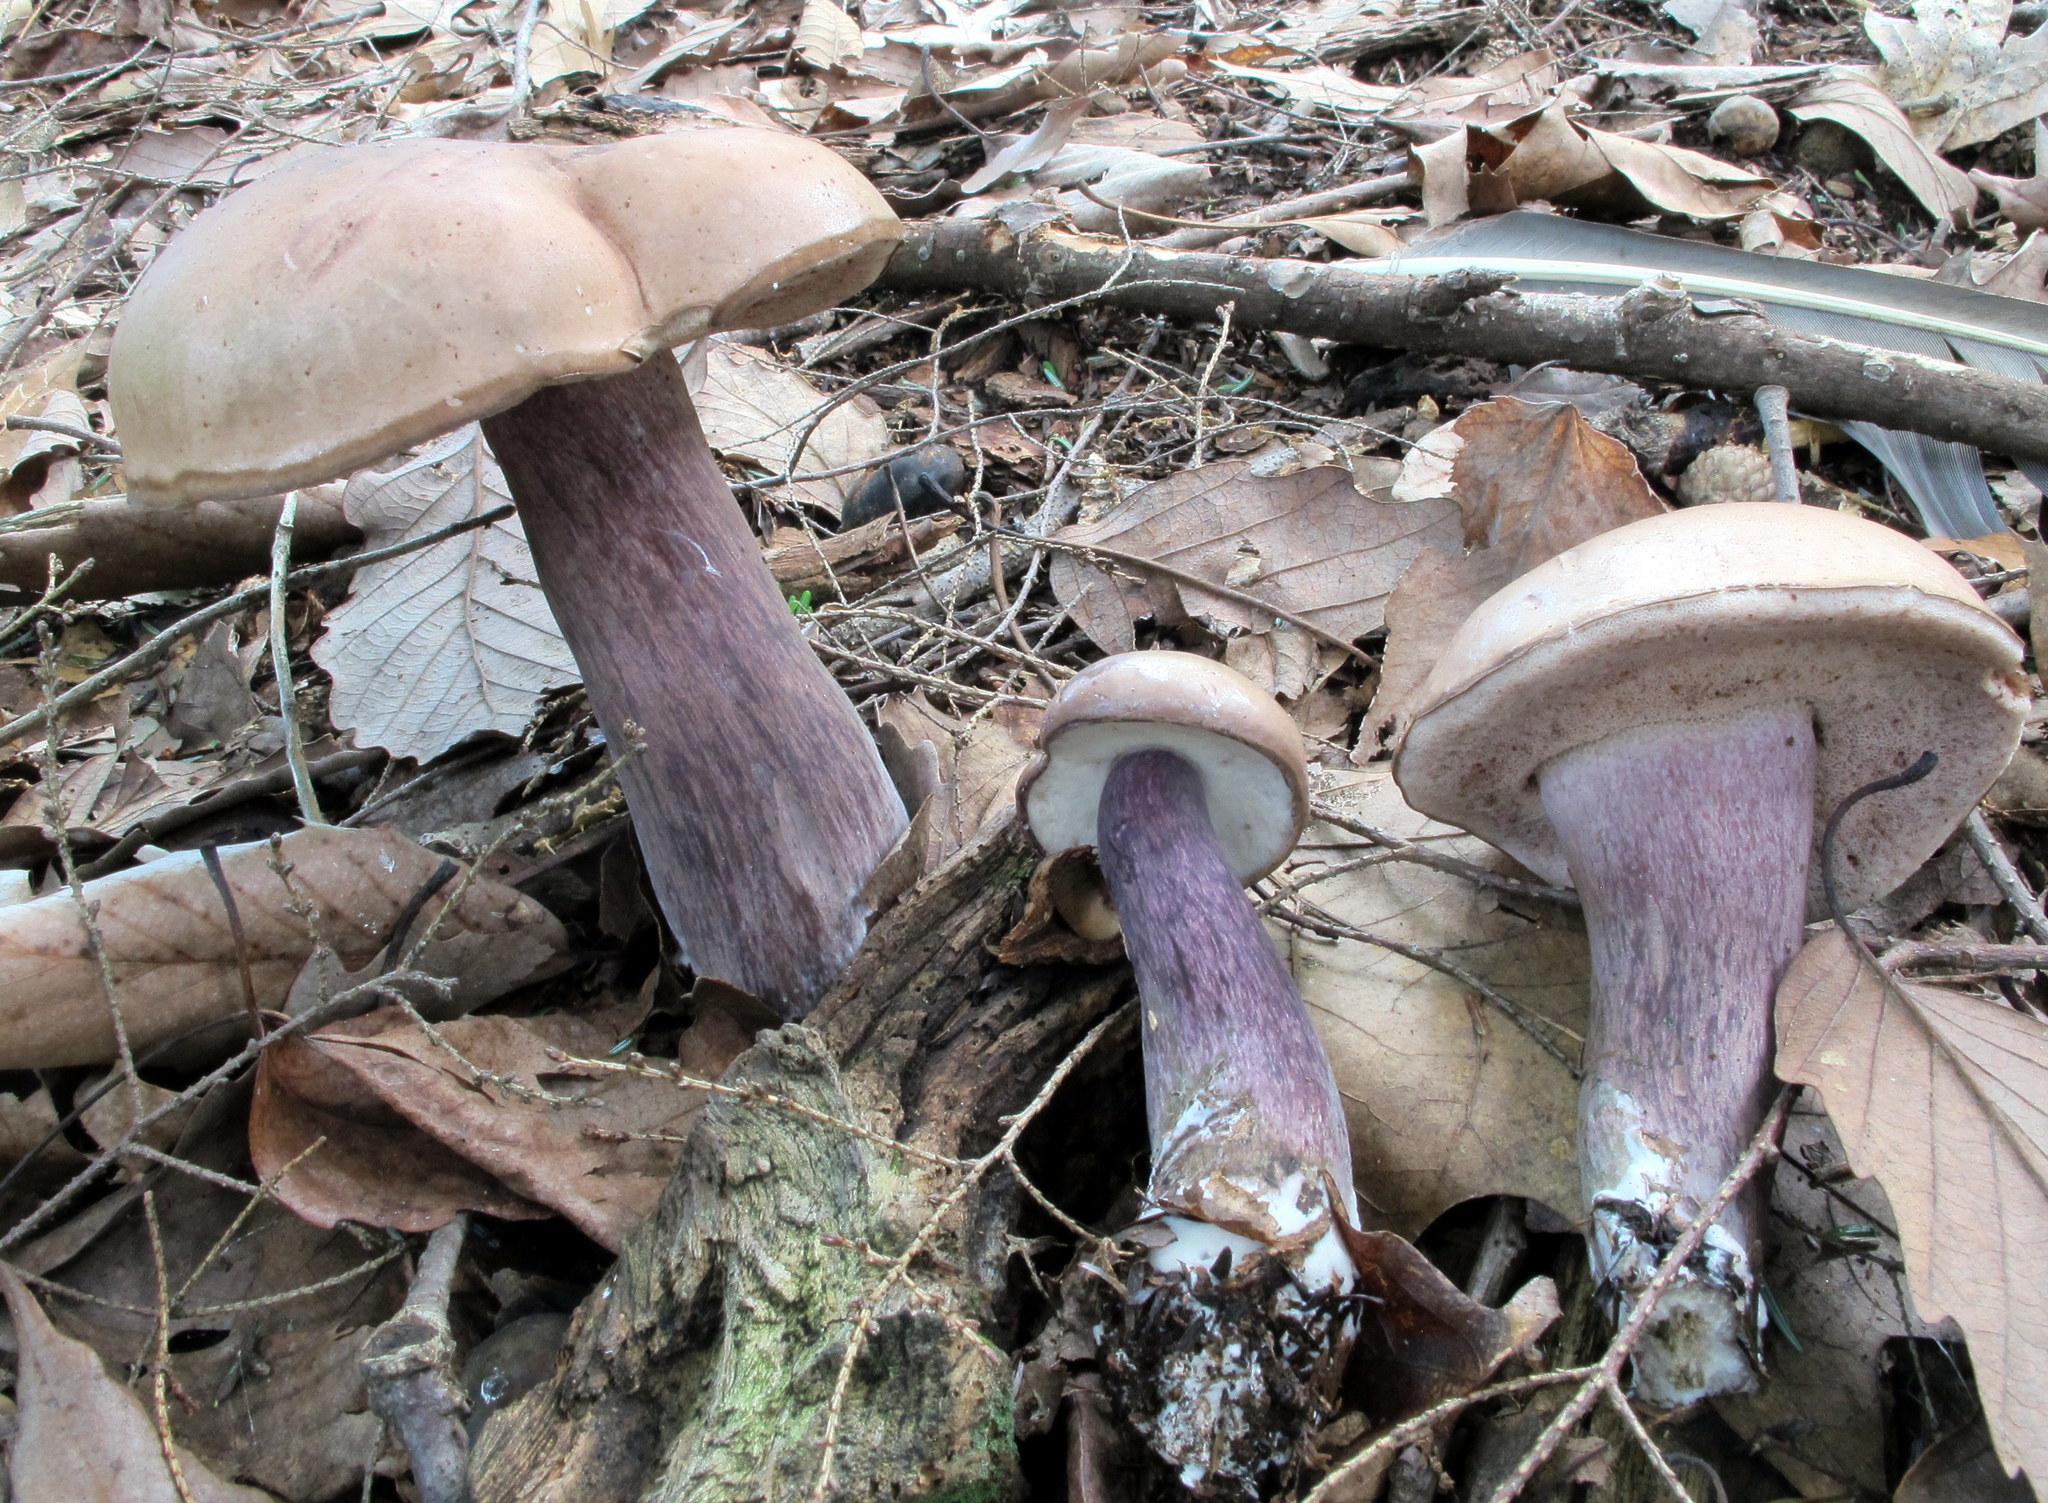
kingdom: Fungi
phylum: Basidiomycota
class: Agaricomycetes
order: Boletales
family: Boletaceae
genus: Tylopilus
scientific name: Tylopilus plumbeoviolaceus
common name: Violet gray bolete
